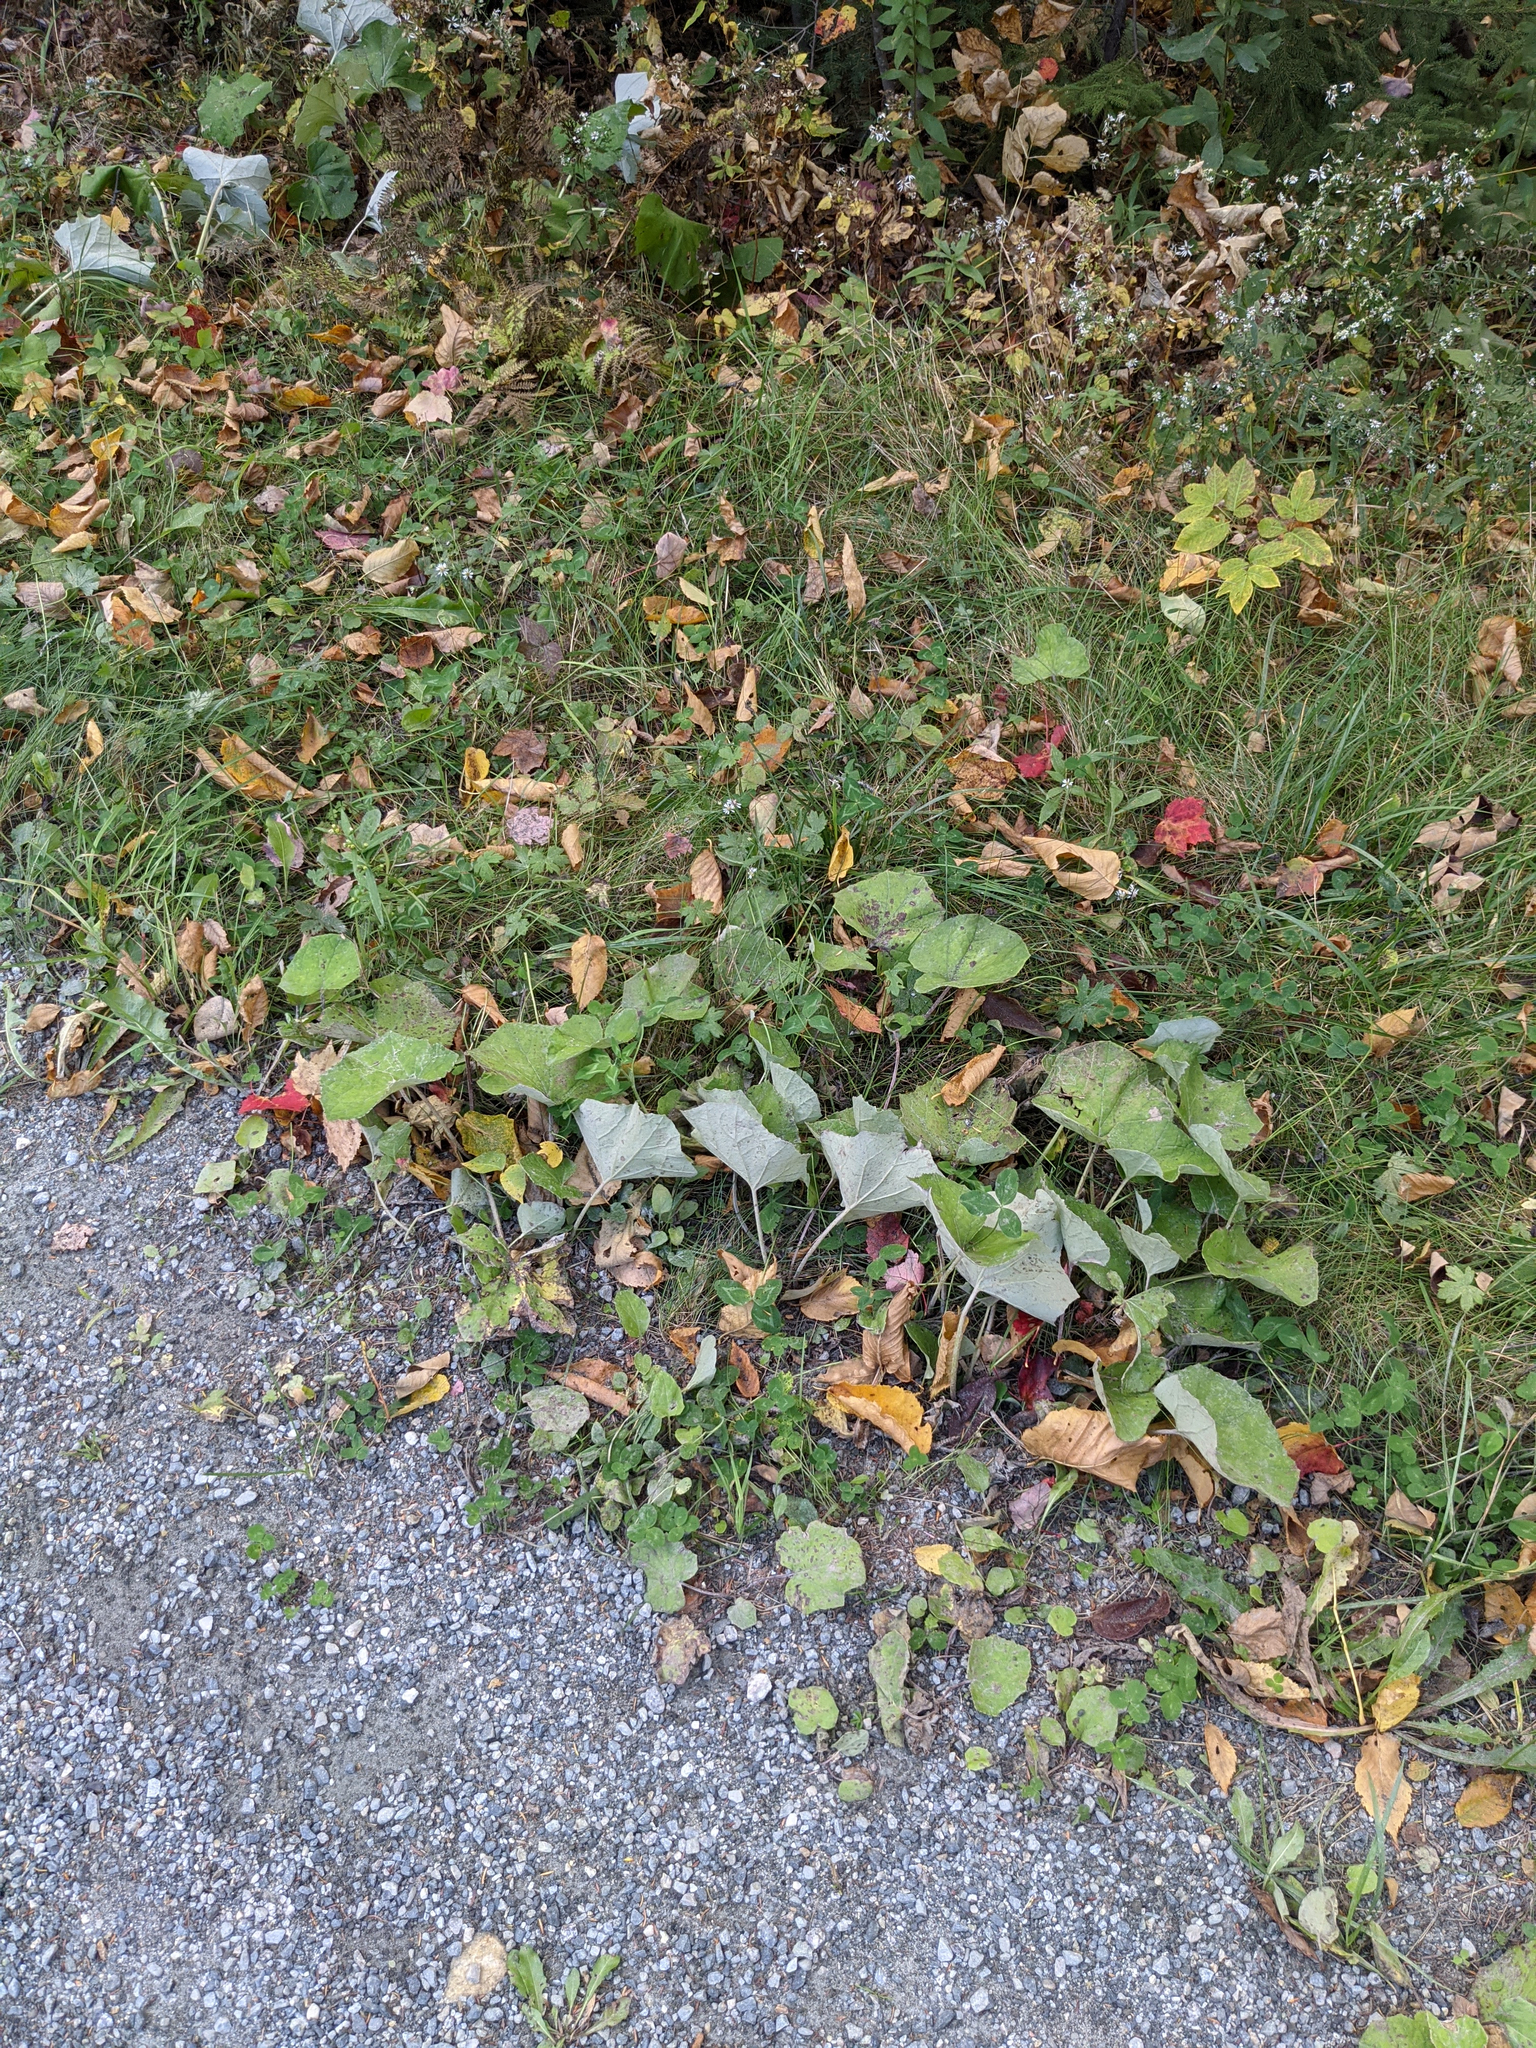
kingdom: Plantae
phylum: Tracheophyta
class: Magnoliopsida
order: Asterales
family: Asteraceae
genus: Tussilago
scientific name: Tussilago farfara
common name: Coltsfoot
